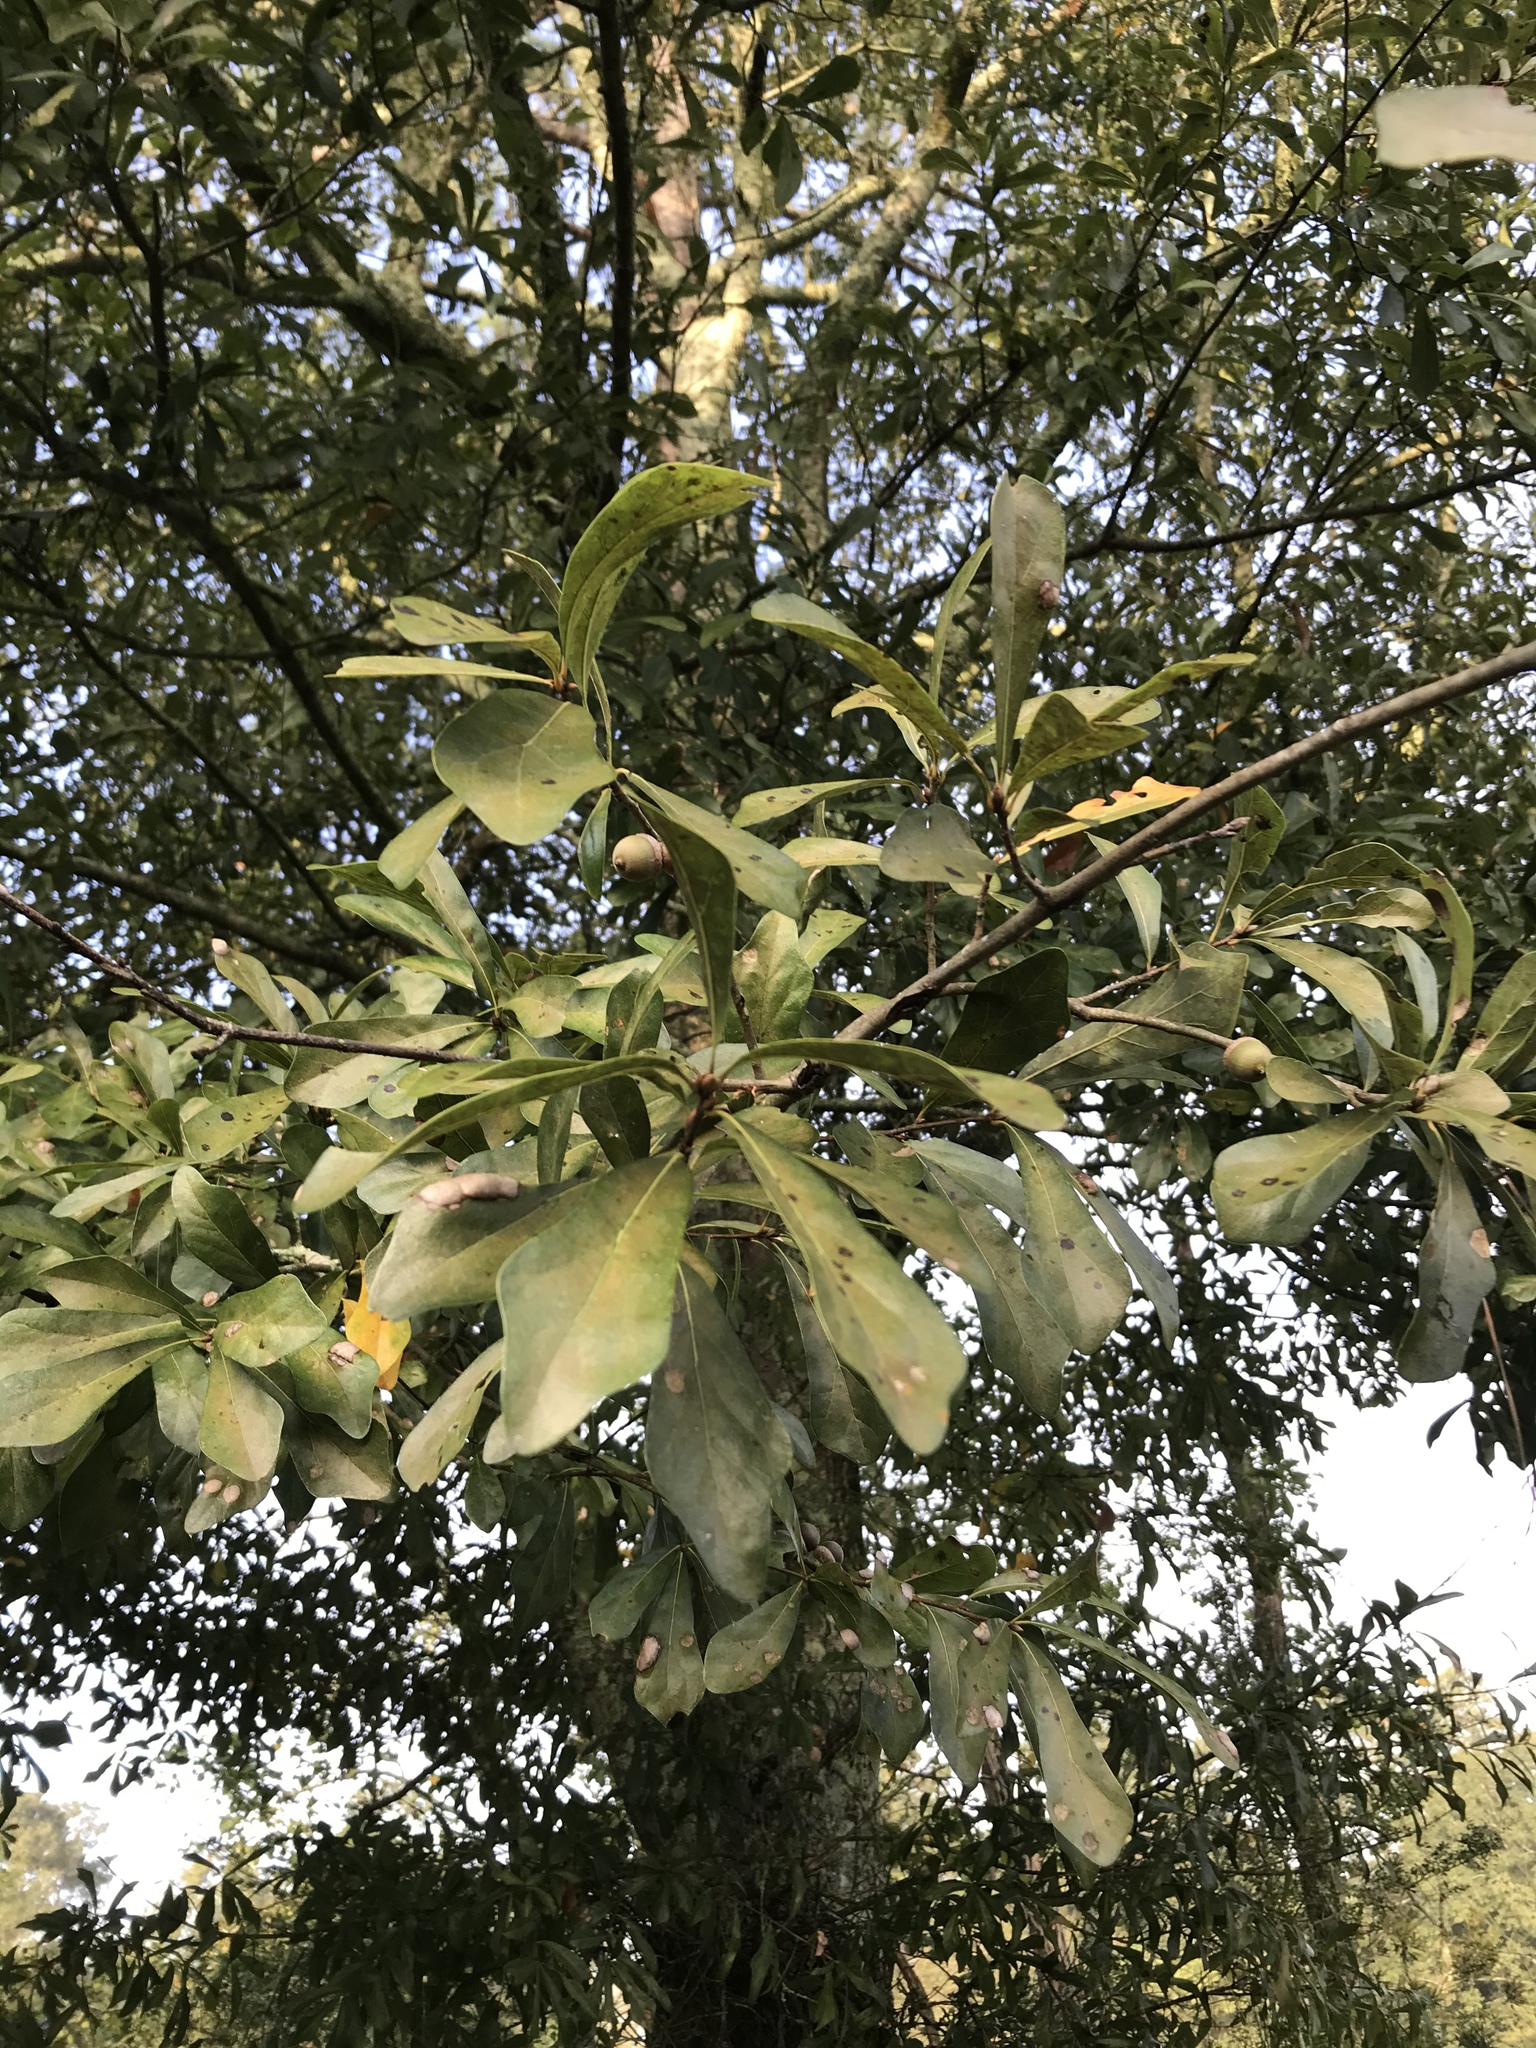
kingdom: Plantae
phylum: Tracheophyta
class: Magnoliopsida
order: Fagales
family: Fagaceae
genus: Quercus
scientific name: Quercus nigra
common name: Water oak
